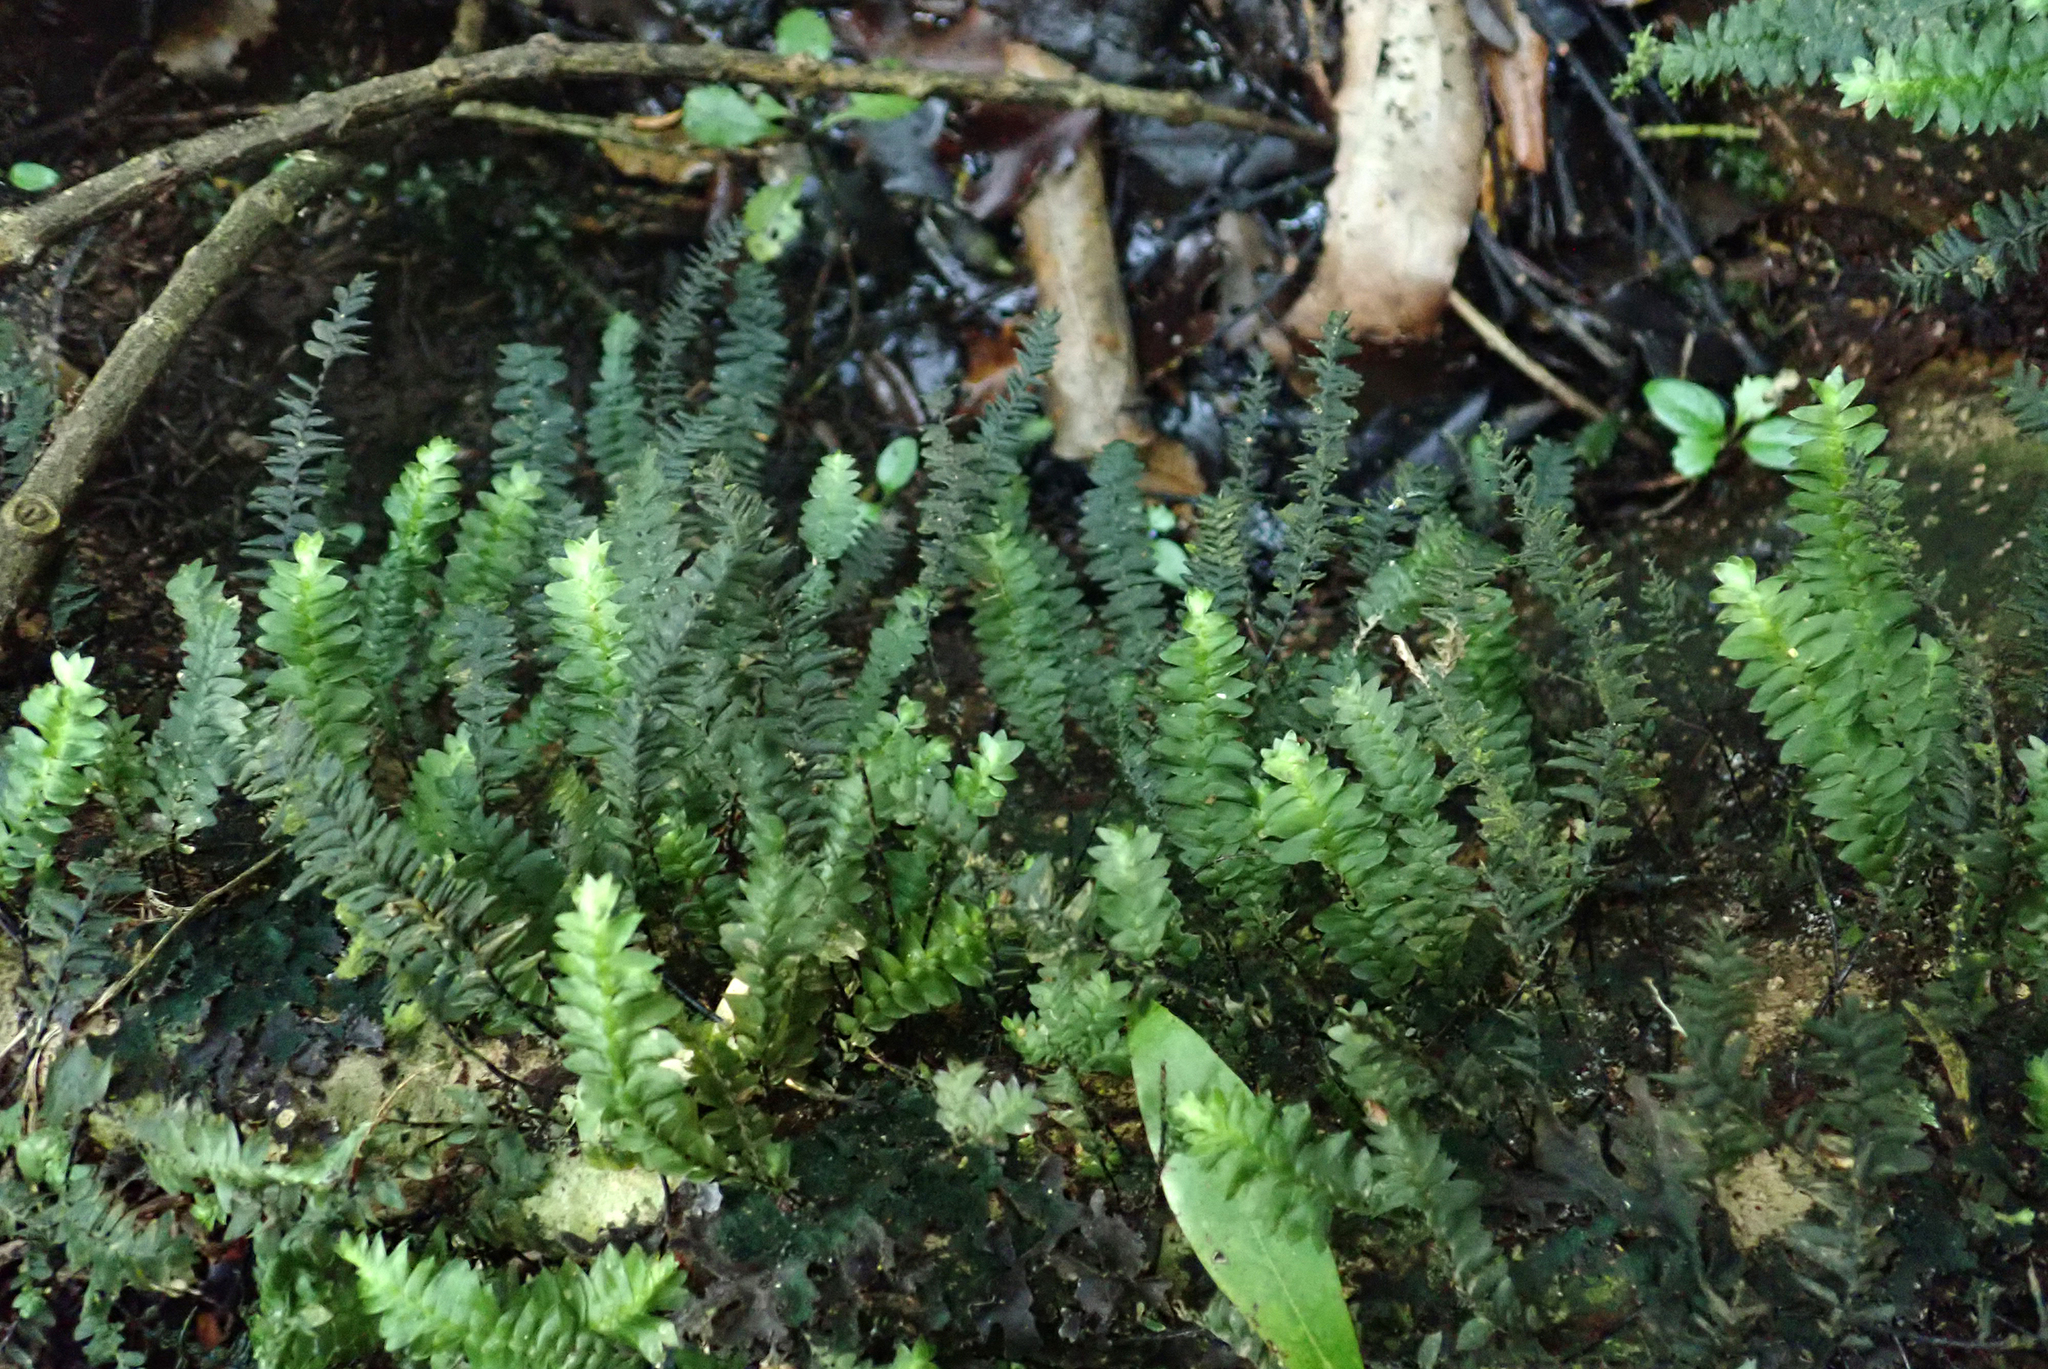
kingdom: Plantae
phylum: Bryophyta
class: Bryopsida
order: Hypopterygiales
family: Hypopterygiaceae
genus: Cyathophorum
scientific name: Cyathophorum bulbosum
